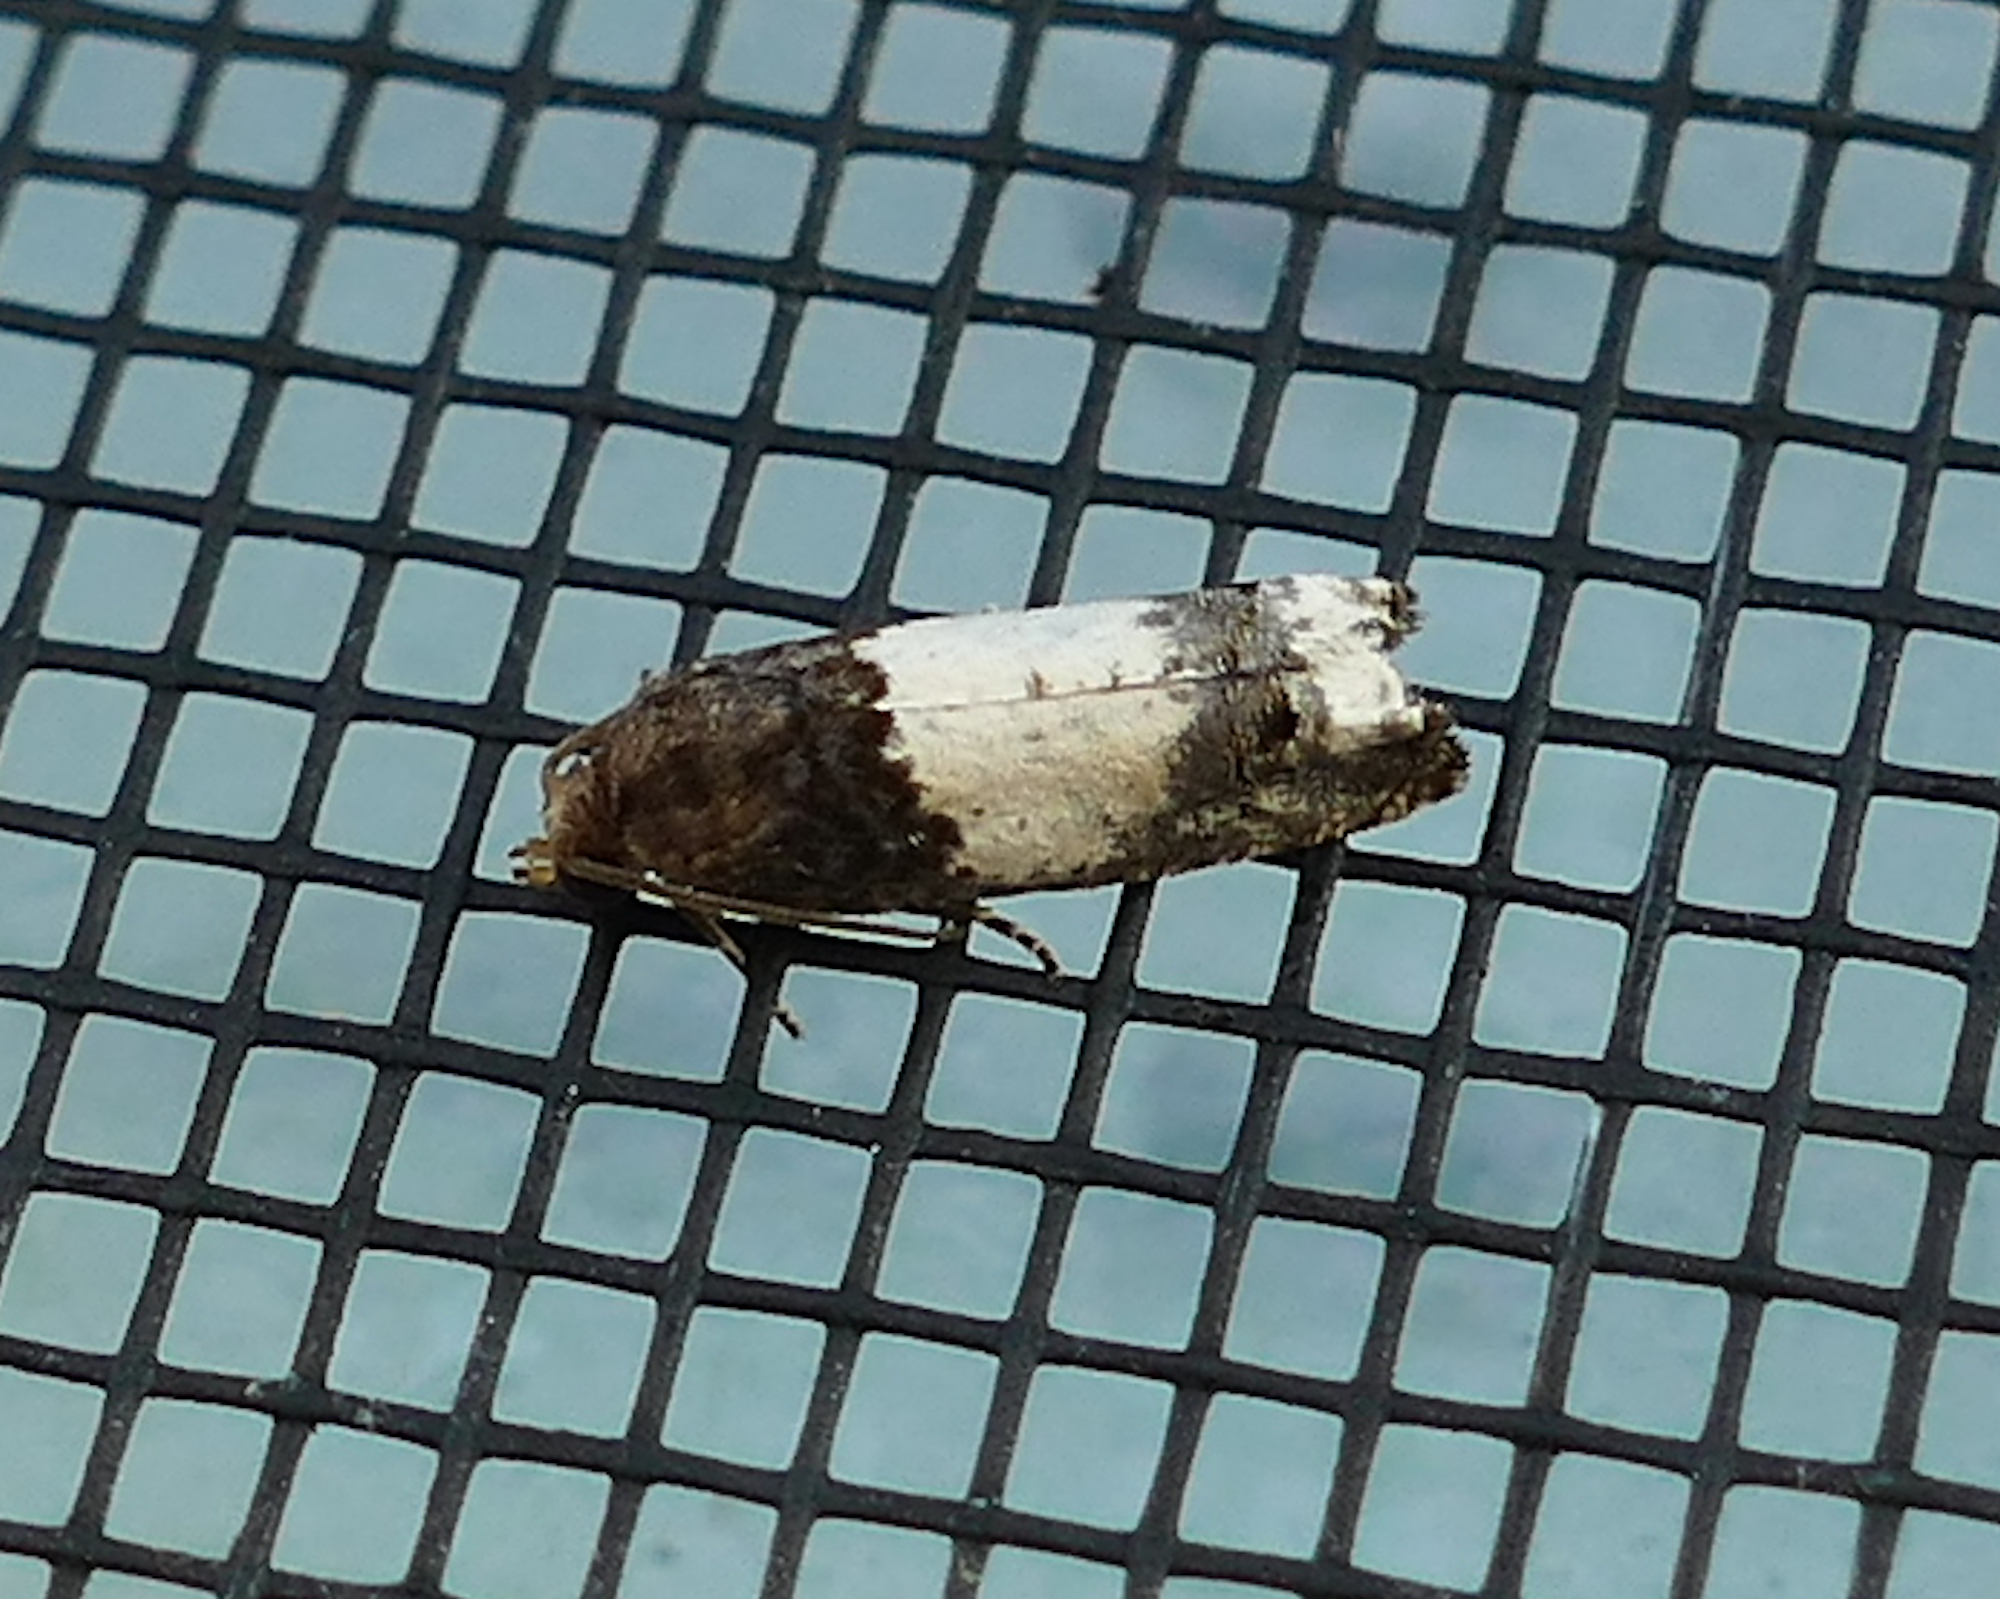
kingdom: Animalia
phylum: Arthropoda
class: Insecta
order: Lepidoptera
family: Tortricidae
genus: Epiblema
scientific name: Epiblema scudderiana
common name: Goldenrod gall moth
